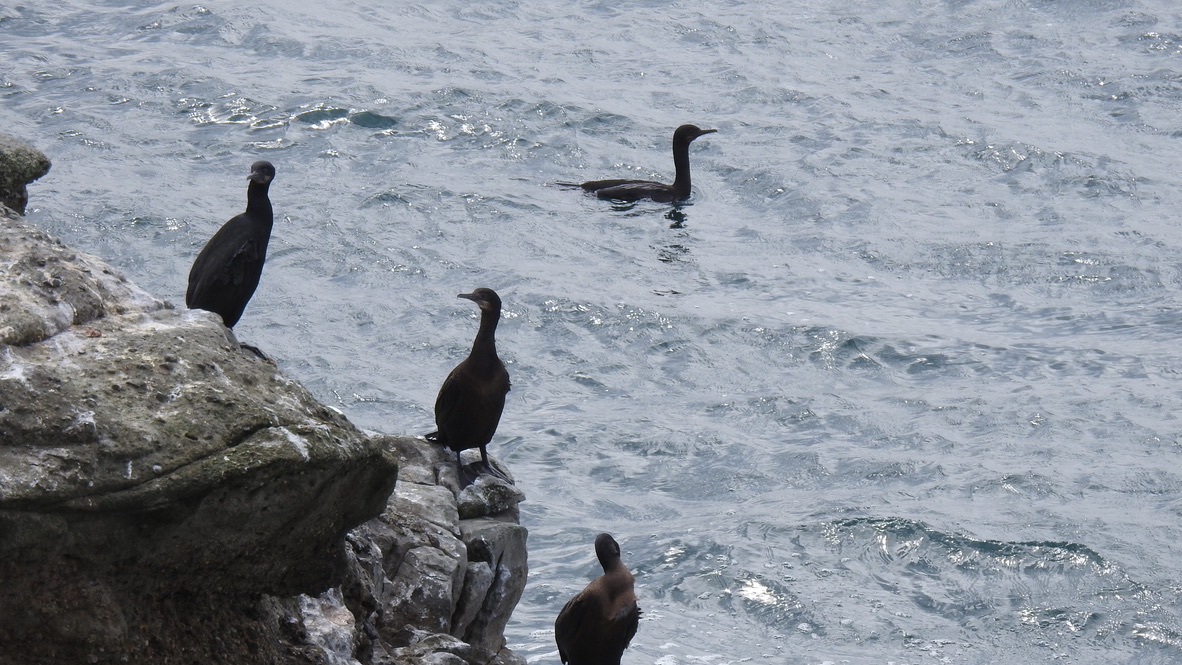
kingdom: Animalia
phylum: Chordata
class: Aves
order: Suliformes
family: Phalacrocoracidae
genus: Urile
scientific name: Urile penicillatus
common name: Brandt's cormorant
